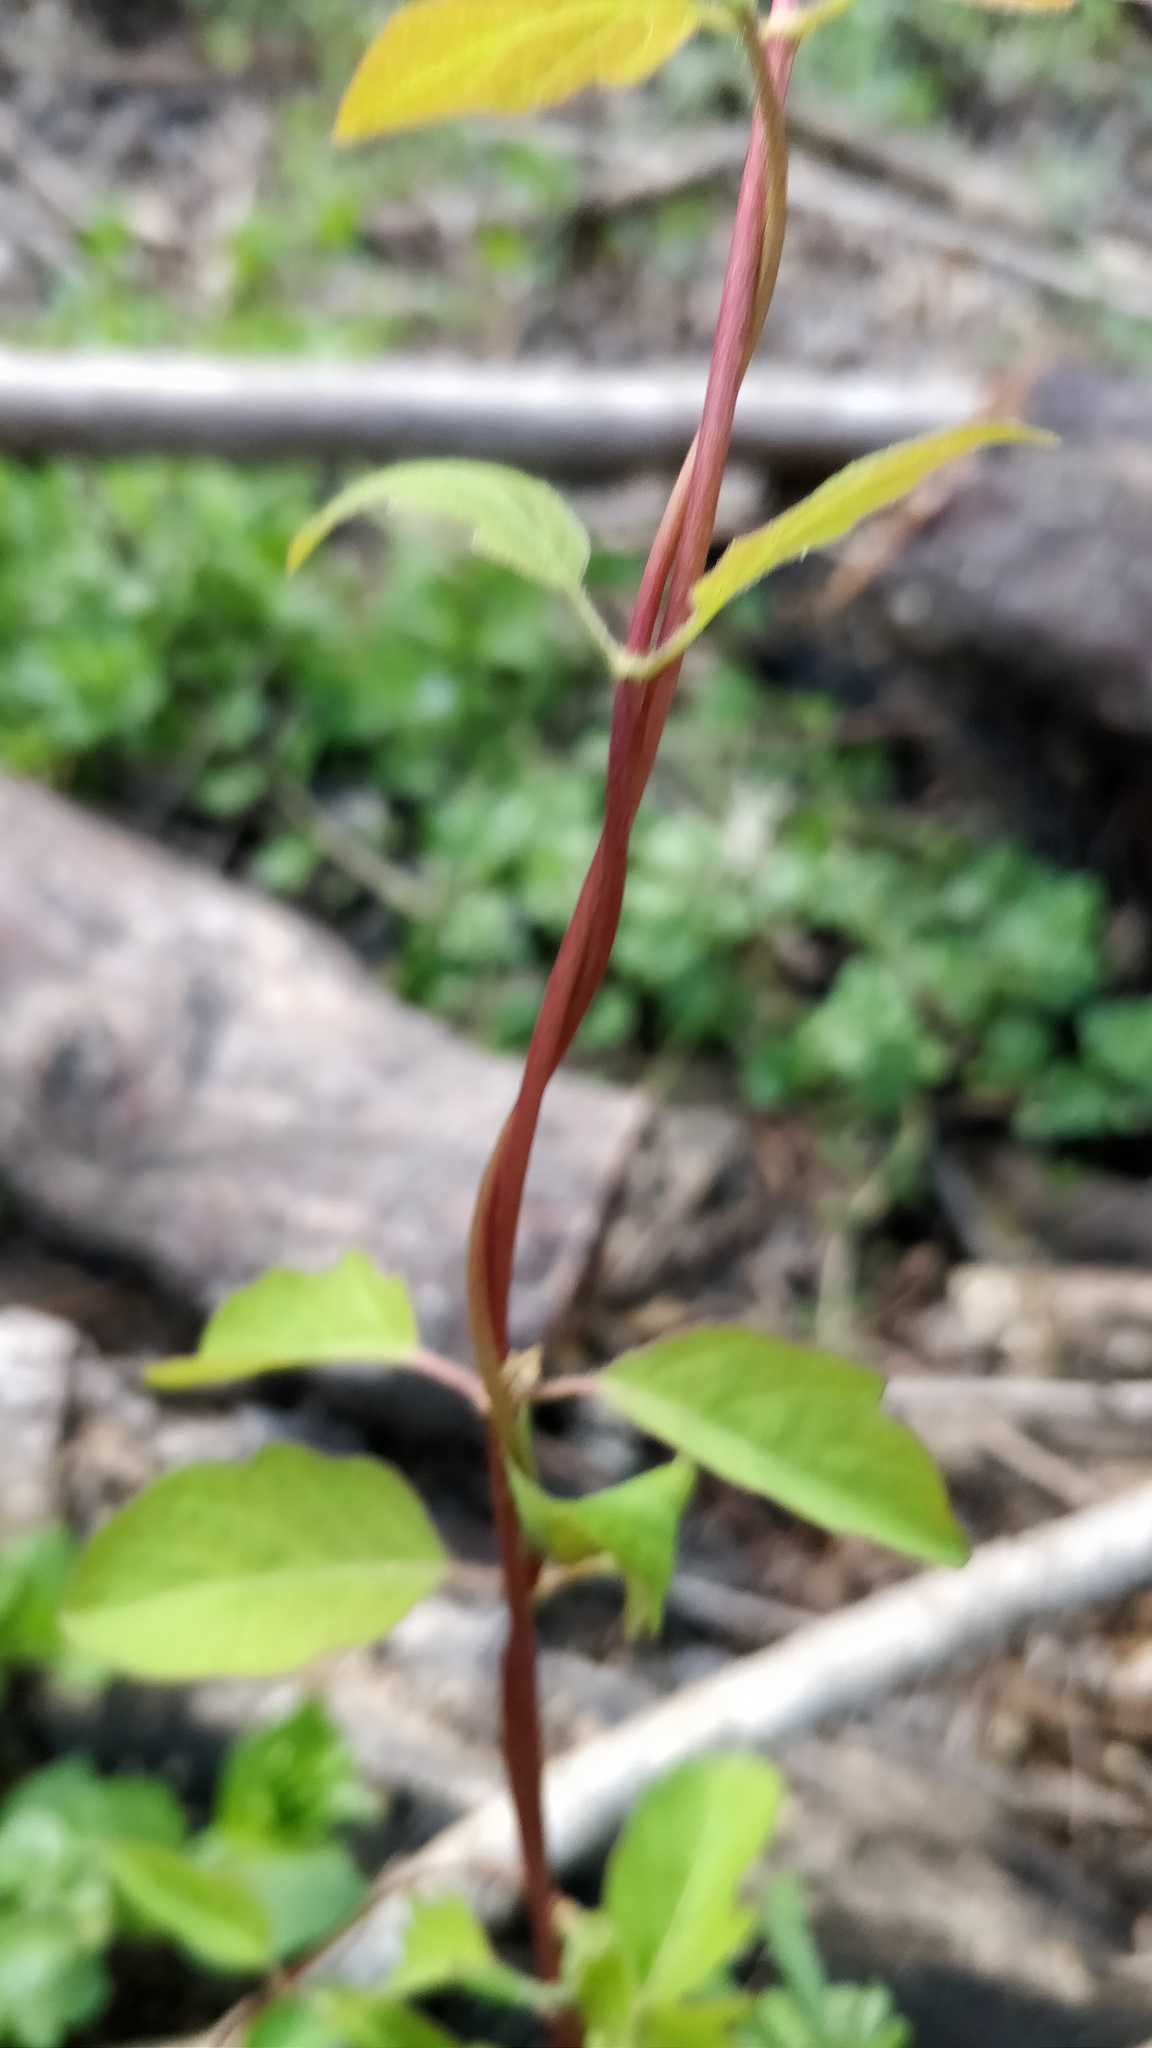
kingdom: Plantae
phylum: Tracheophyta
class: Magnoliopsida
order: Dipsacales
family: Caprifoliaceae
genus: Lonicera
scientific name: Lonicera japonica
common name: Japanese honeysuckle
